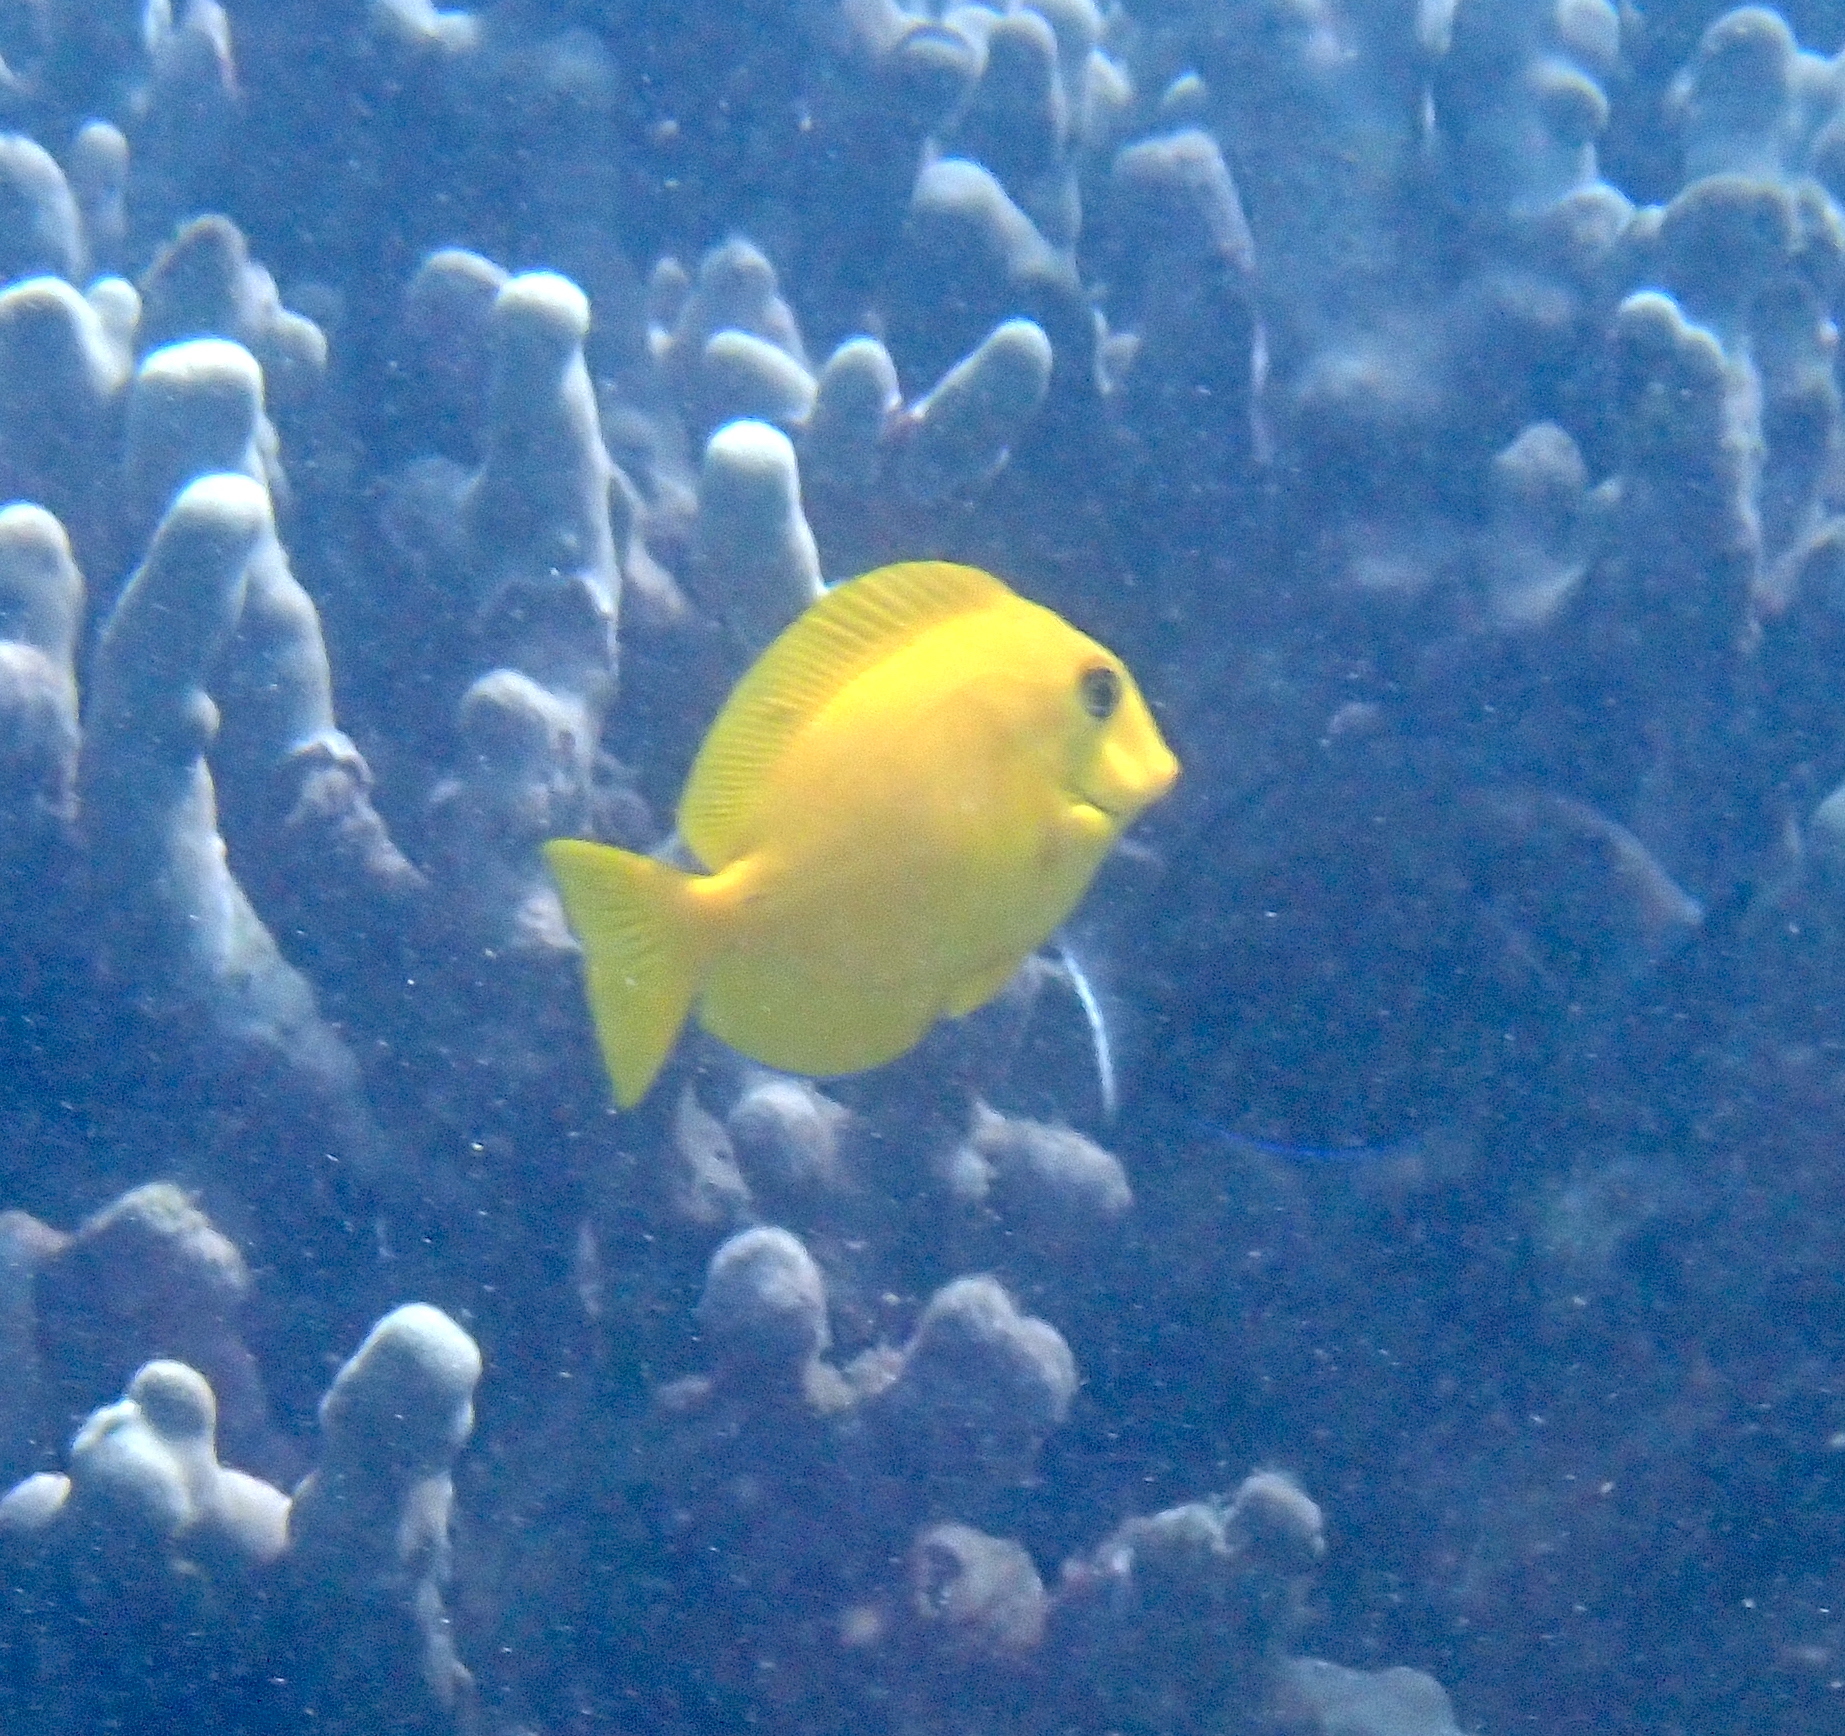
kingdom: Animalia
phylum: Chordata
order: Perciformes
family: Acanthuridae
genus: Acanthurus
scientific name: Acanthurus olivaceus
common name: Gendarme fish
